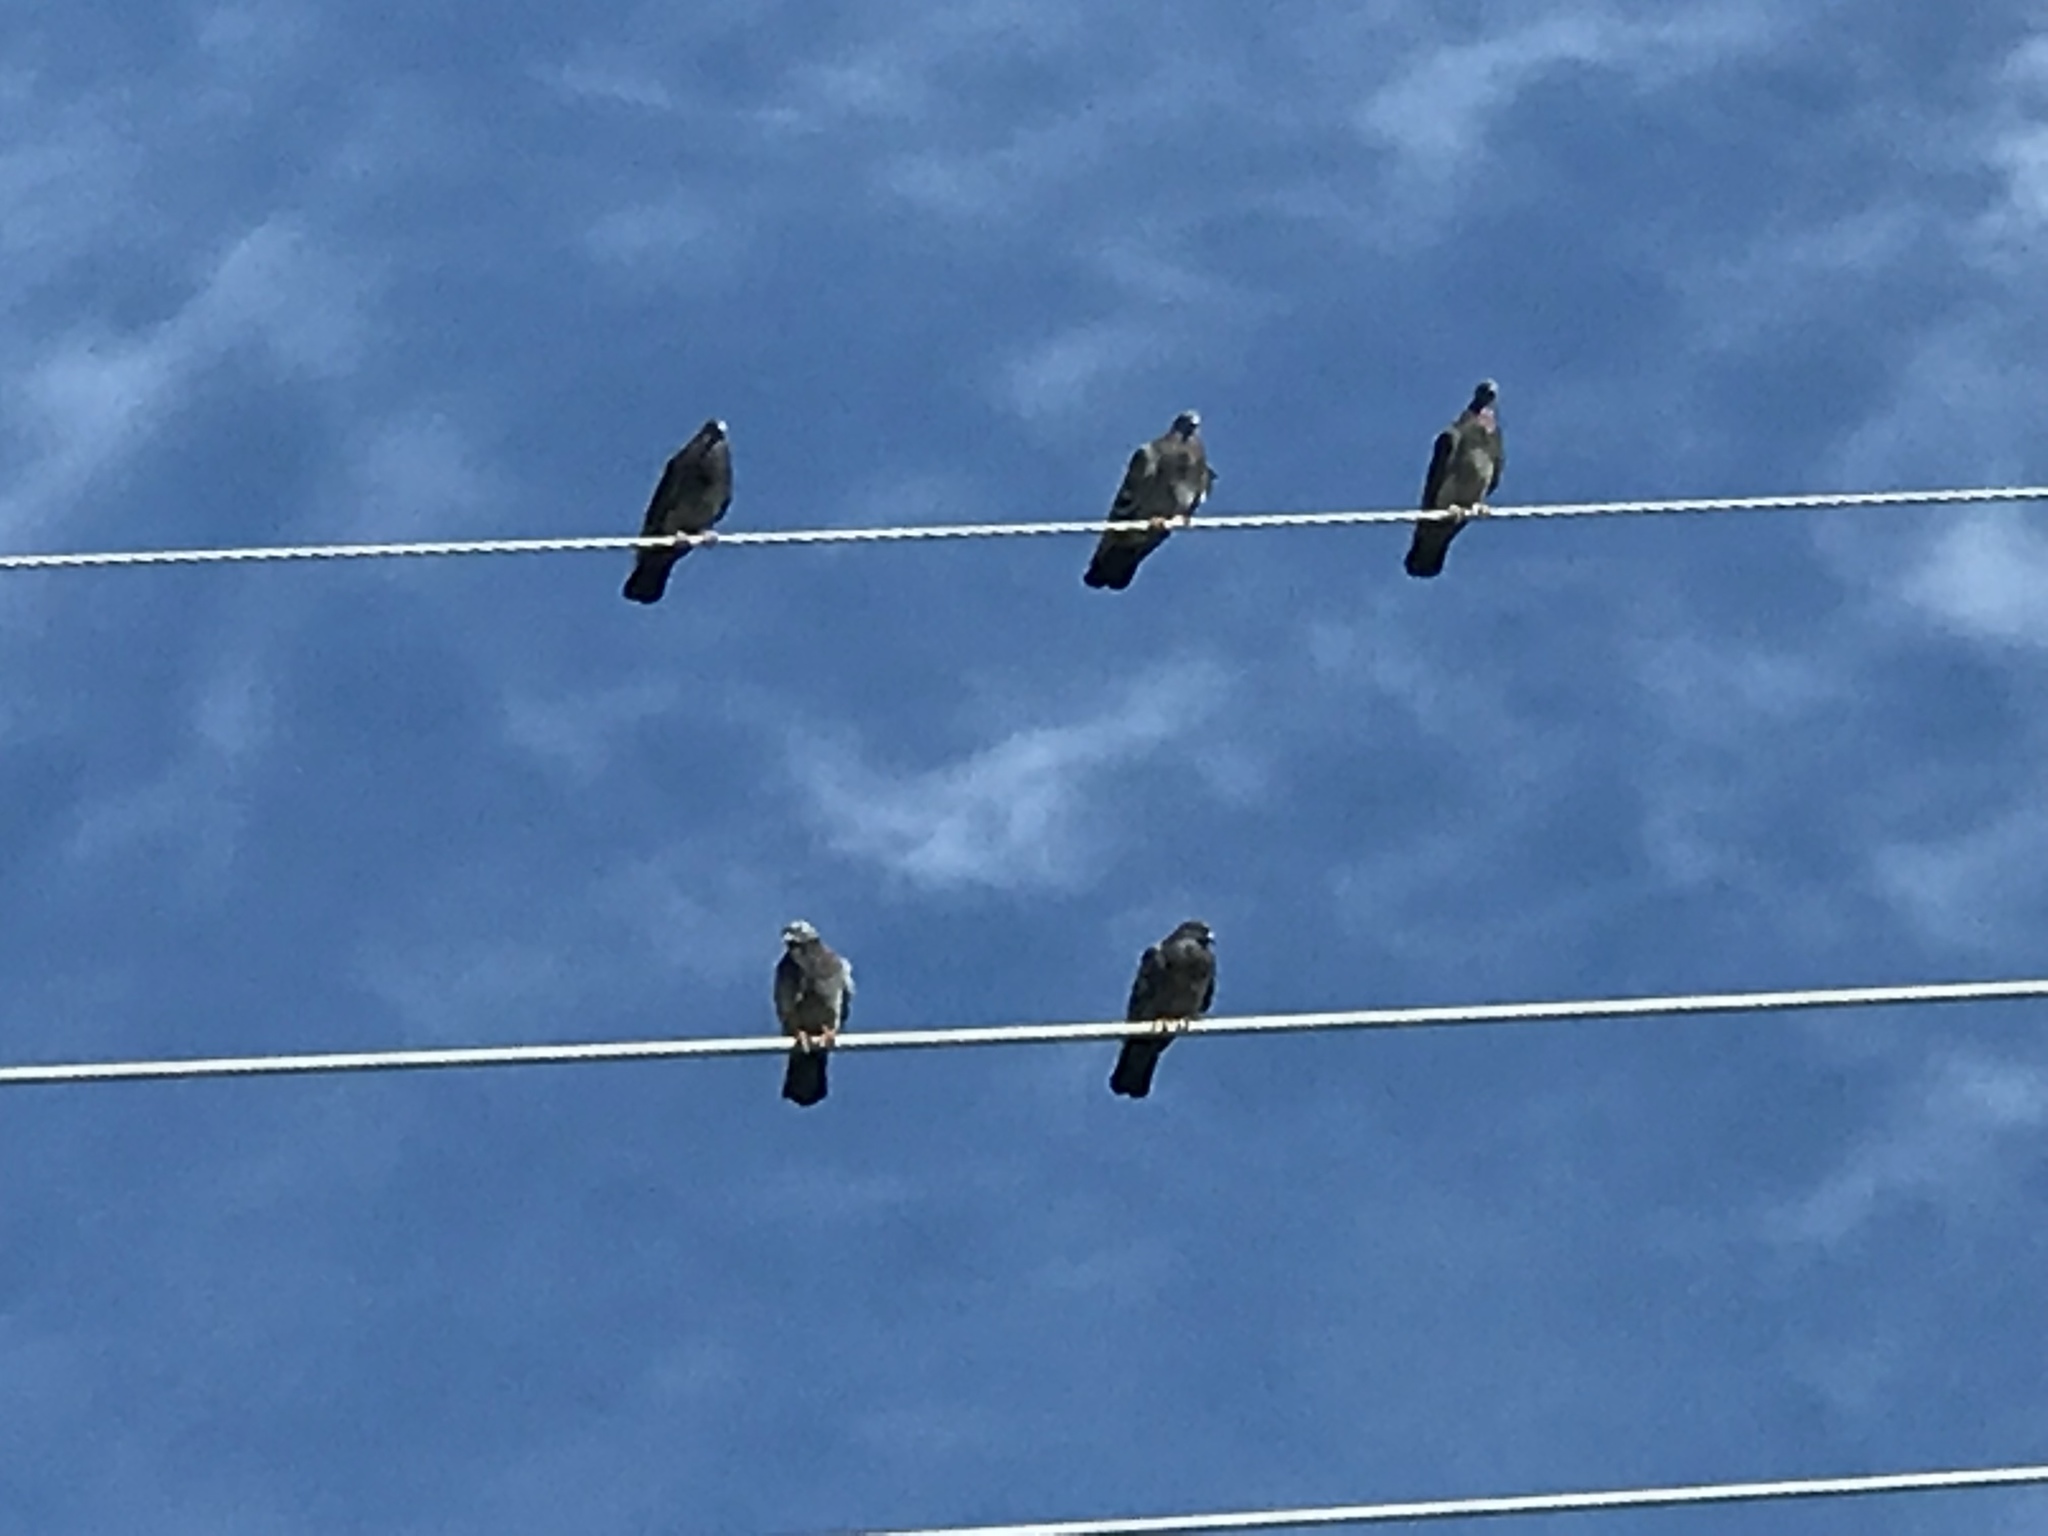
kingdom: Animalia
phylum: Chordata
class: Aves
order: Columbiformes
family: Columbidae
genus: Columba
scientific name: Columba livia
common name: Rock pigeon
